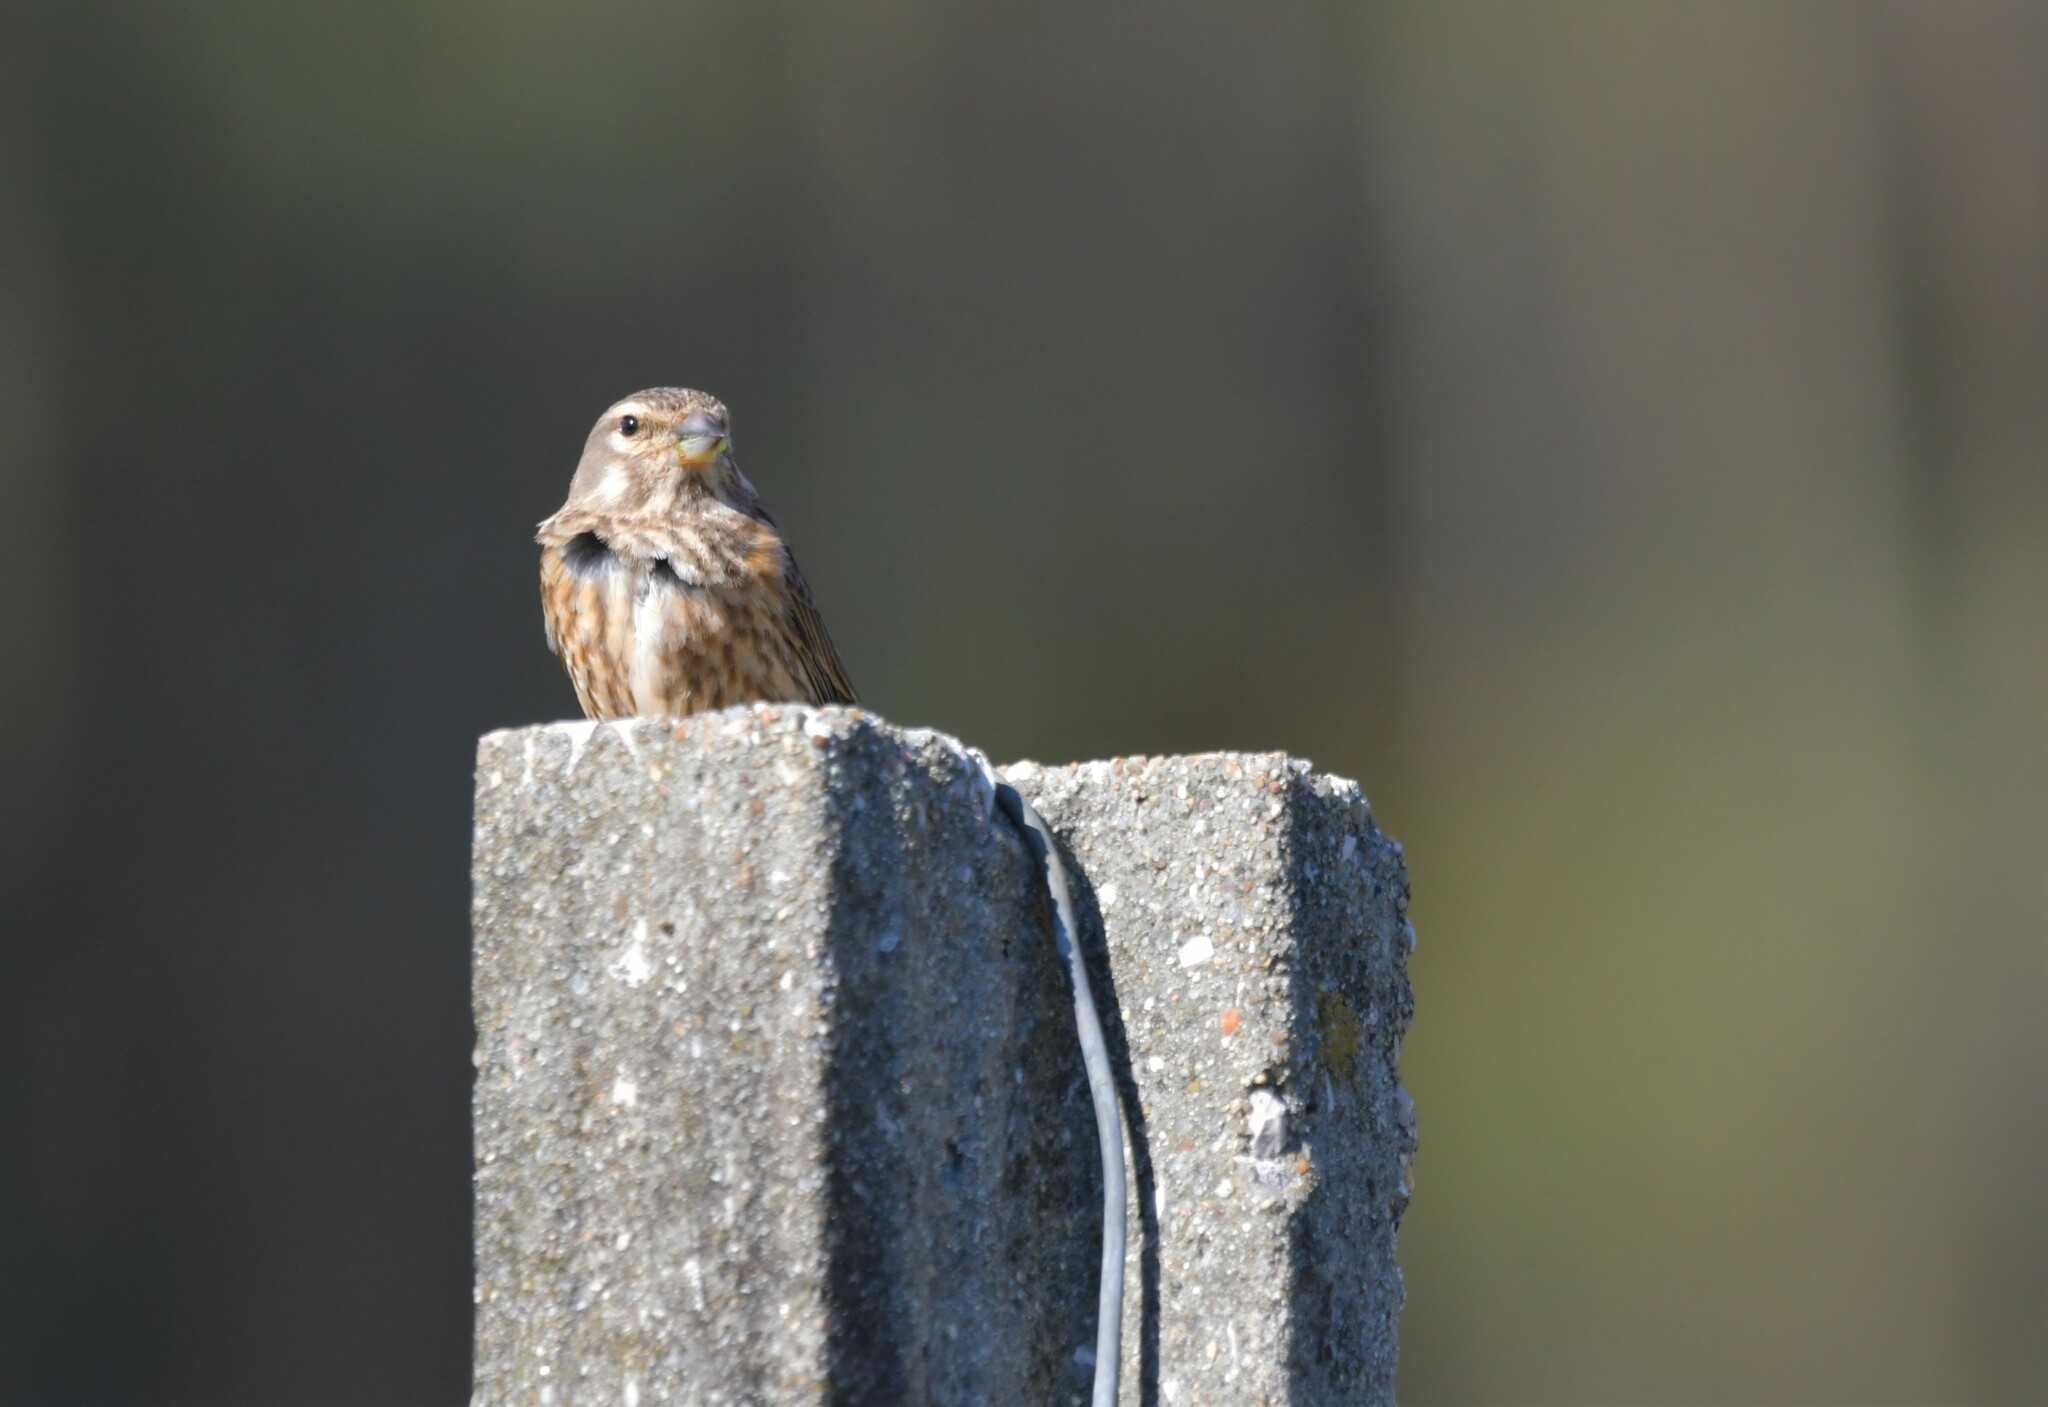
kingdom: Animalia
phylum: Chordata
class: Aves
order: Passeriformes
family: Fringillidae
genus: Linaria
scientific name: Linaria cannabina
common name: Common linnet
